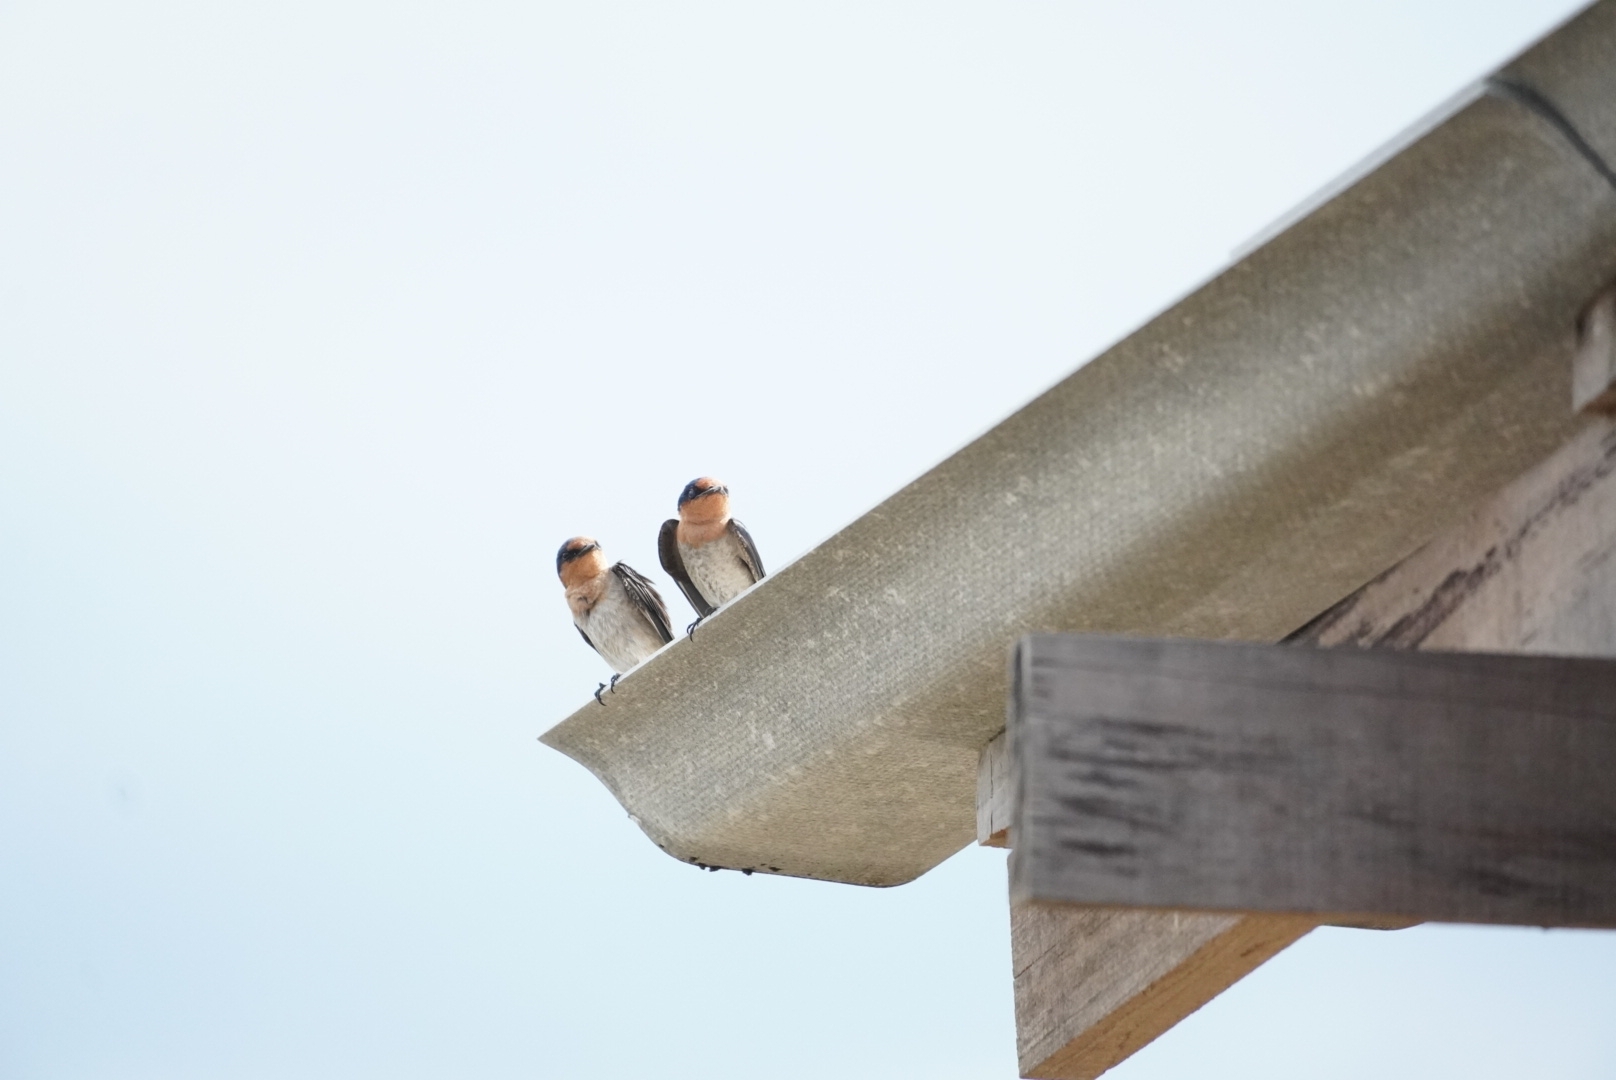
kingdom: Animalia
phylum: Chordata
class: Aves
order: Passeriformes
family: Hirundinidae
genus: Hirundo
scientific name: Hirundo tahitica
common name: Pacific swallow
